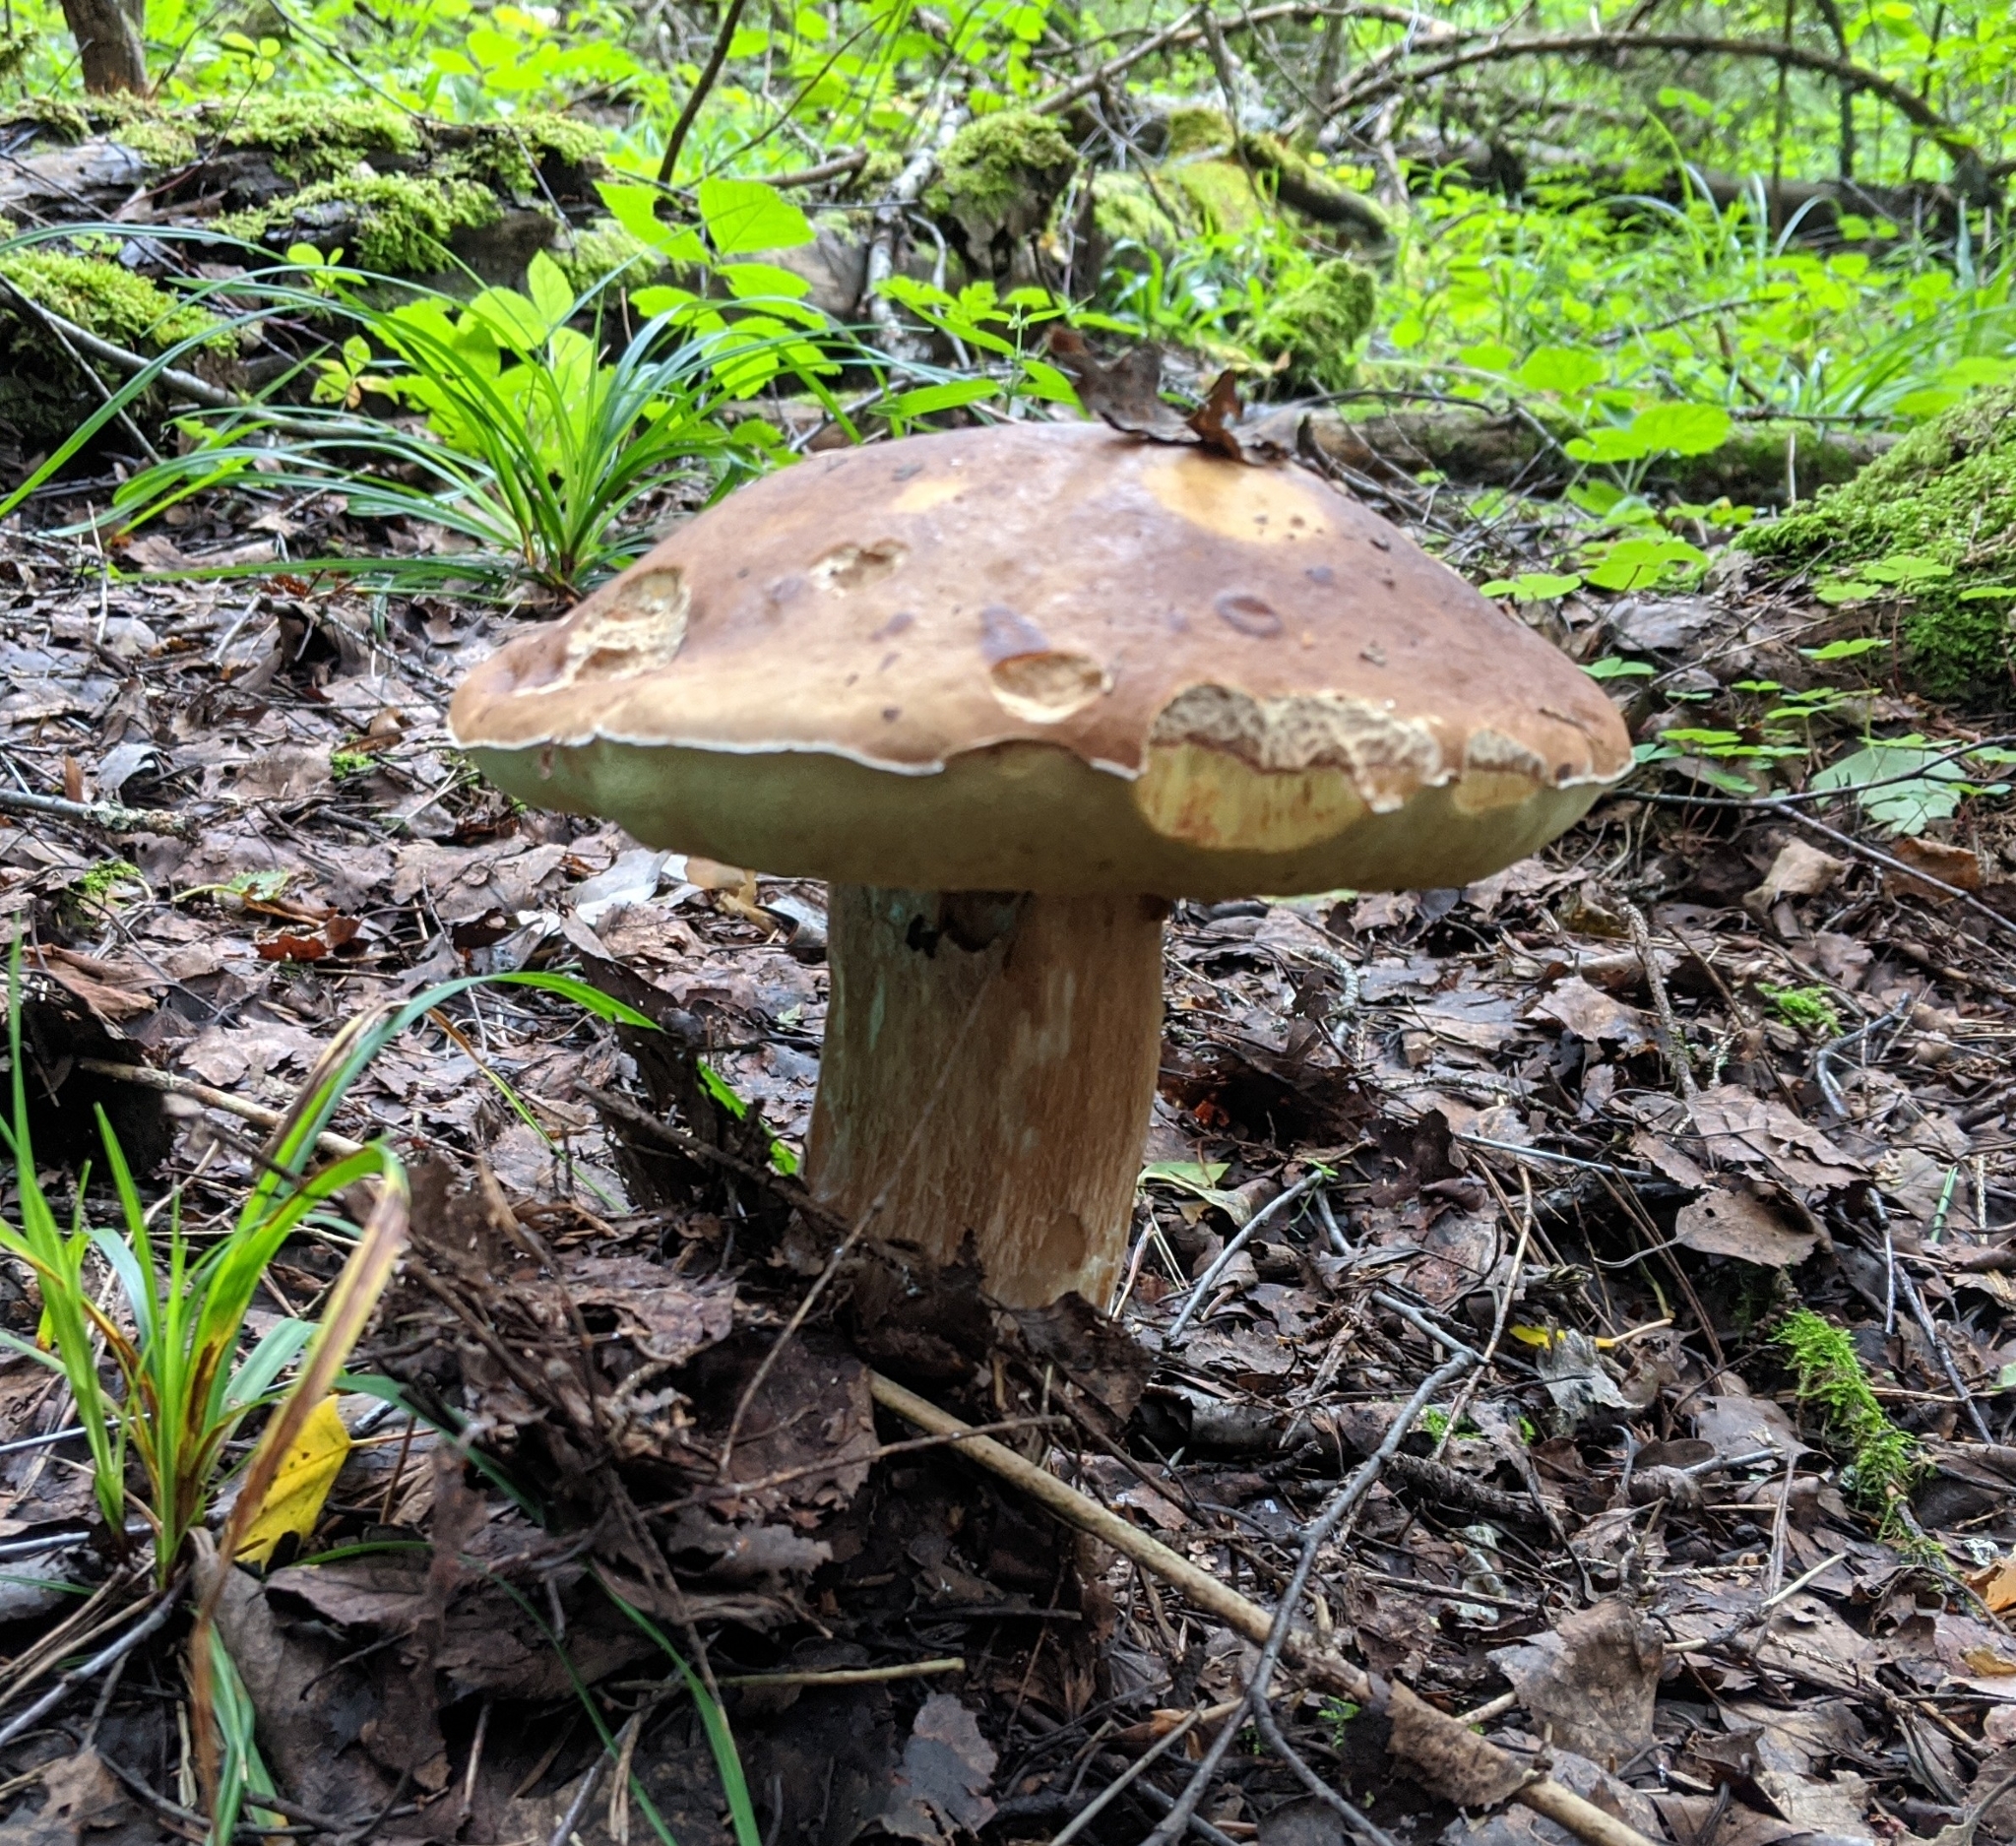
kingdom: Fungi
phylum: Basidiomycota
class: Agaricomycetes
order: Boletales
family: Boletaceae
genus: Boletus
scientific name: Boletus edulis
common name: Cep
